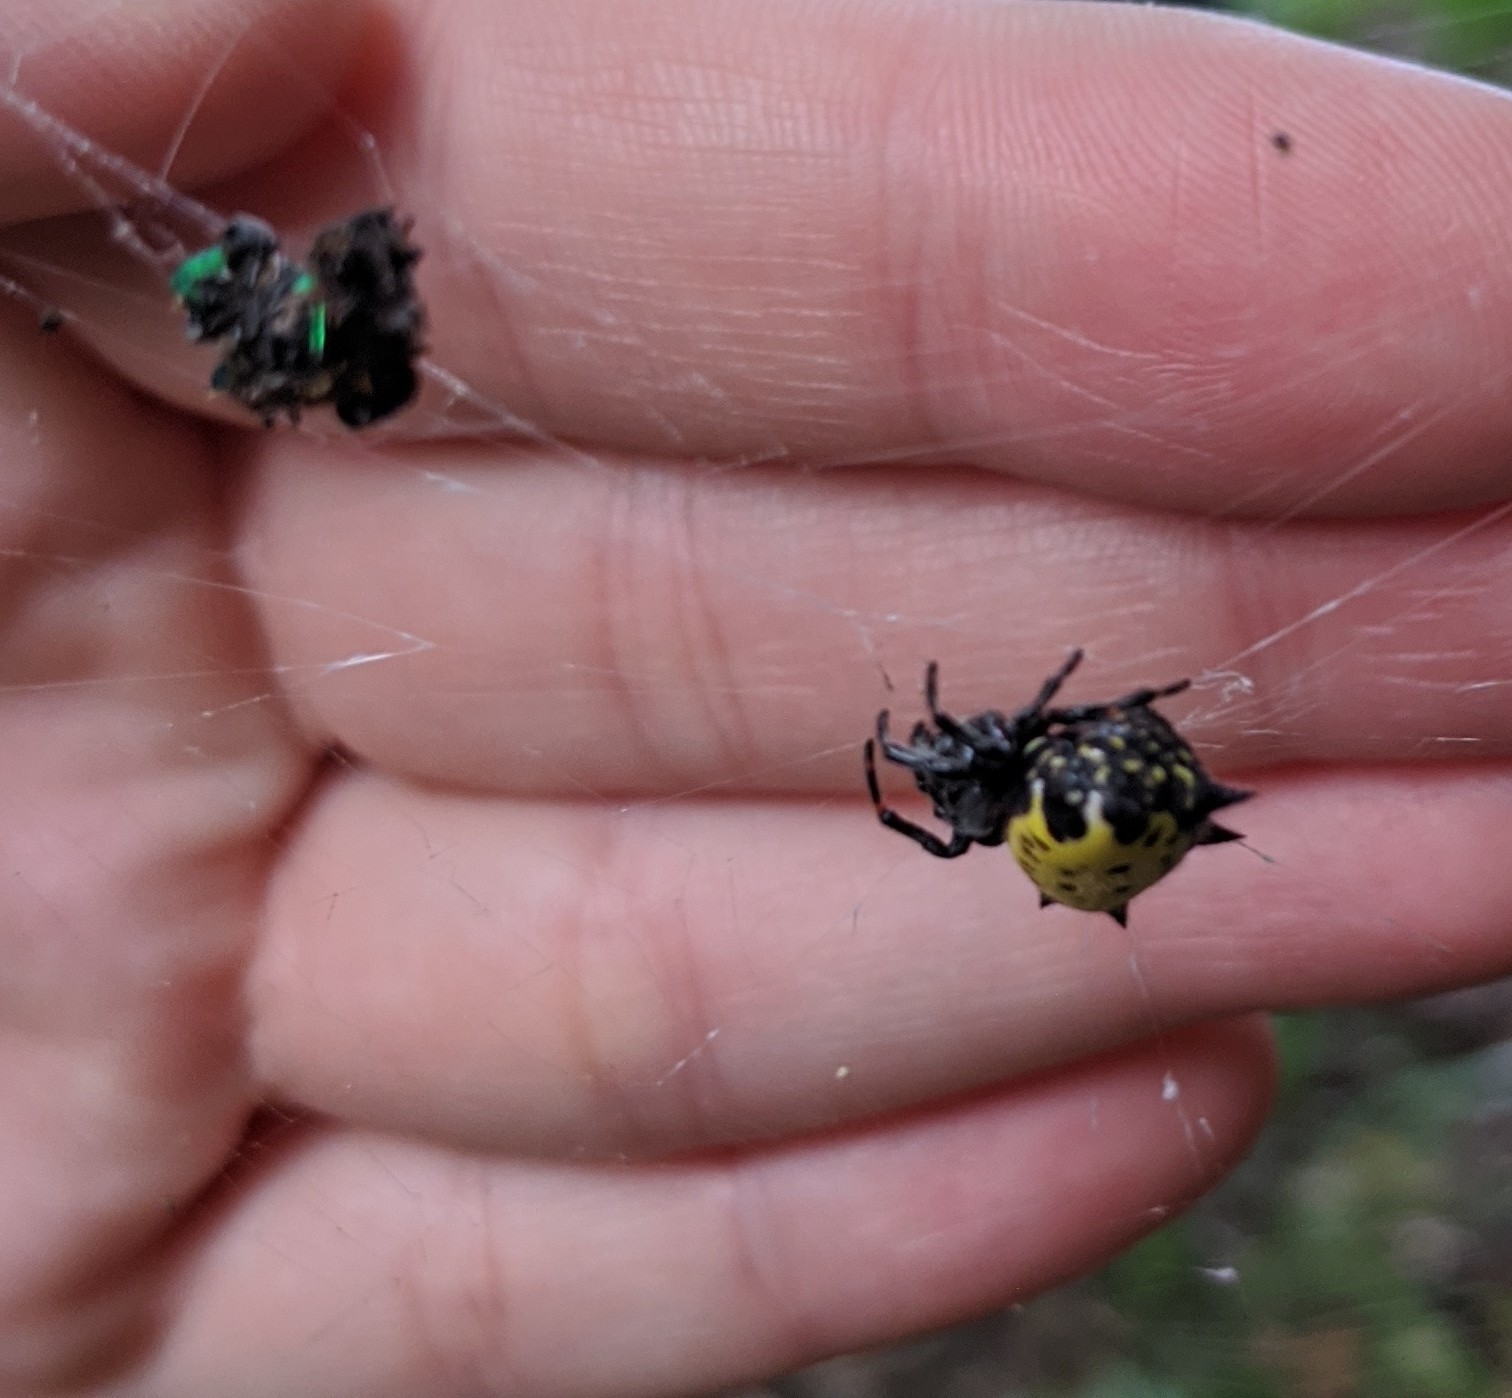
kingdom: Animalia
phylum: Arthropoda
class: Arachnida
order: Araneae
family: Araneidae
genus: Gasteracantha
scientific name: Gasteracantha cancriformis
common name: Orb weavers
